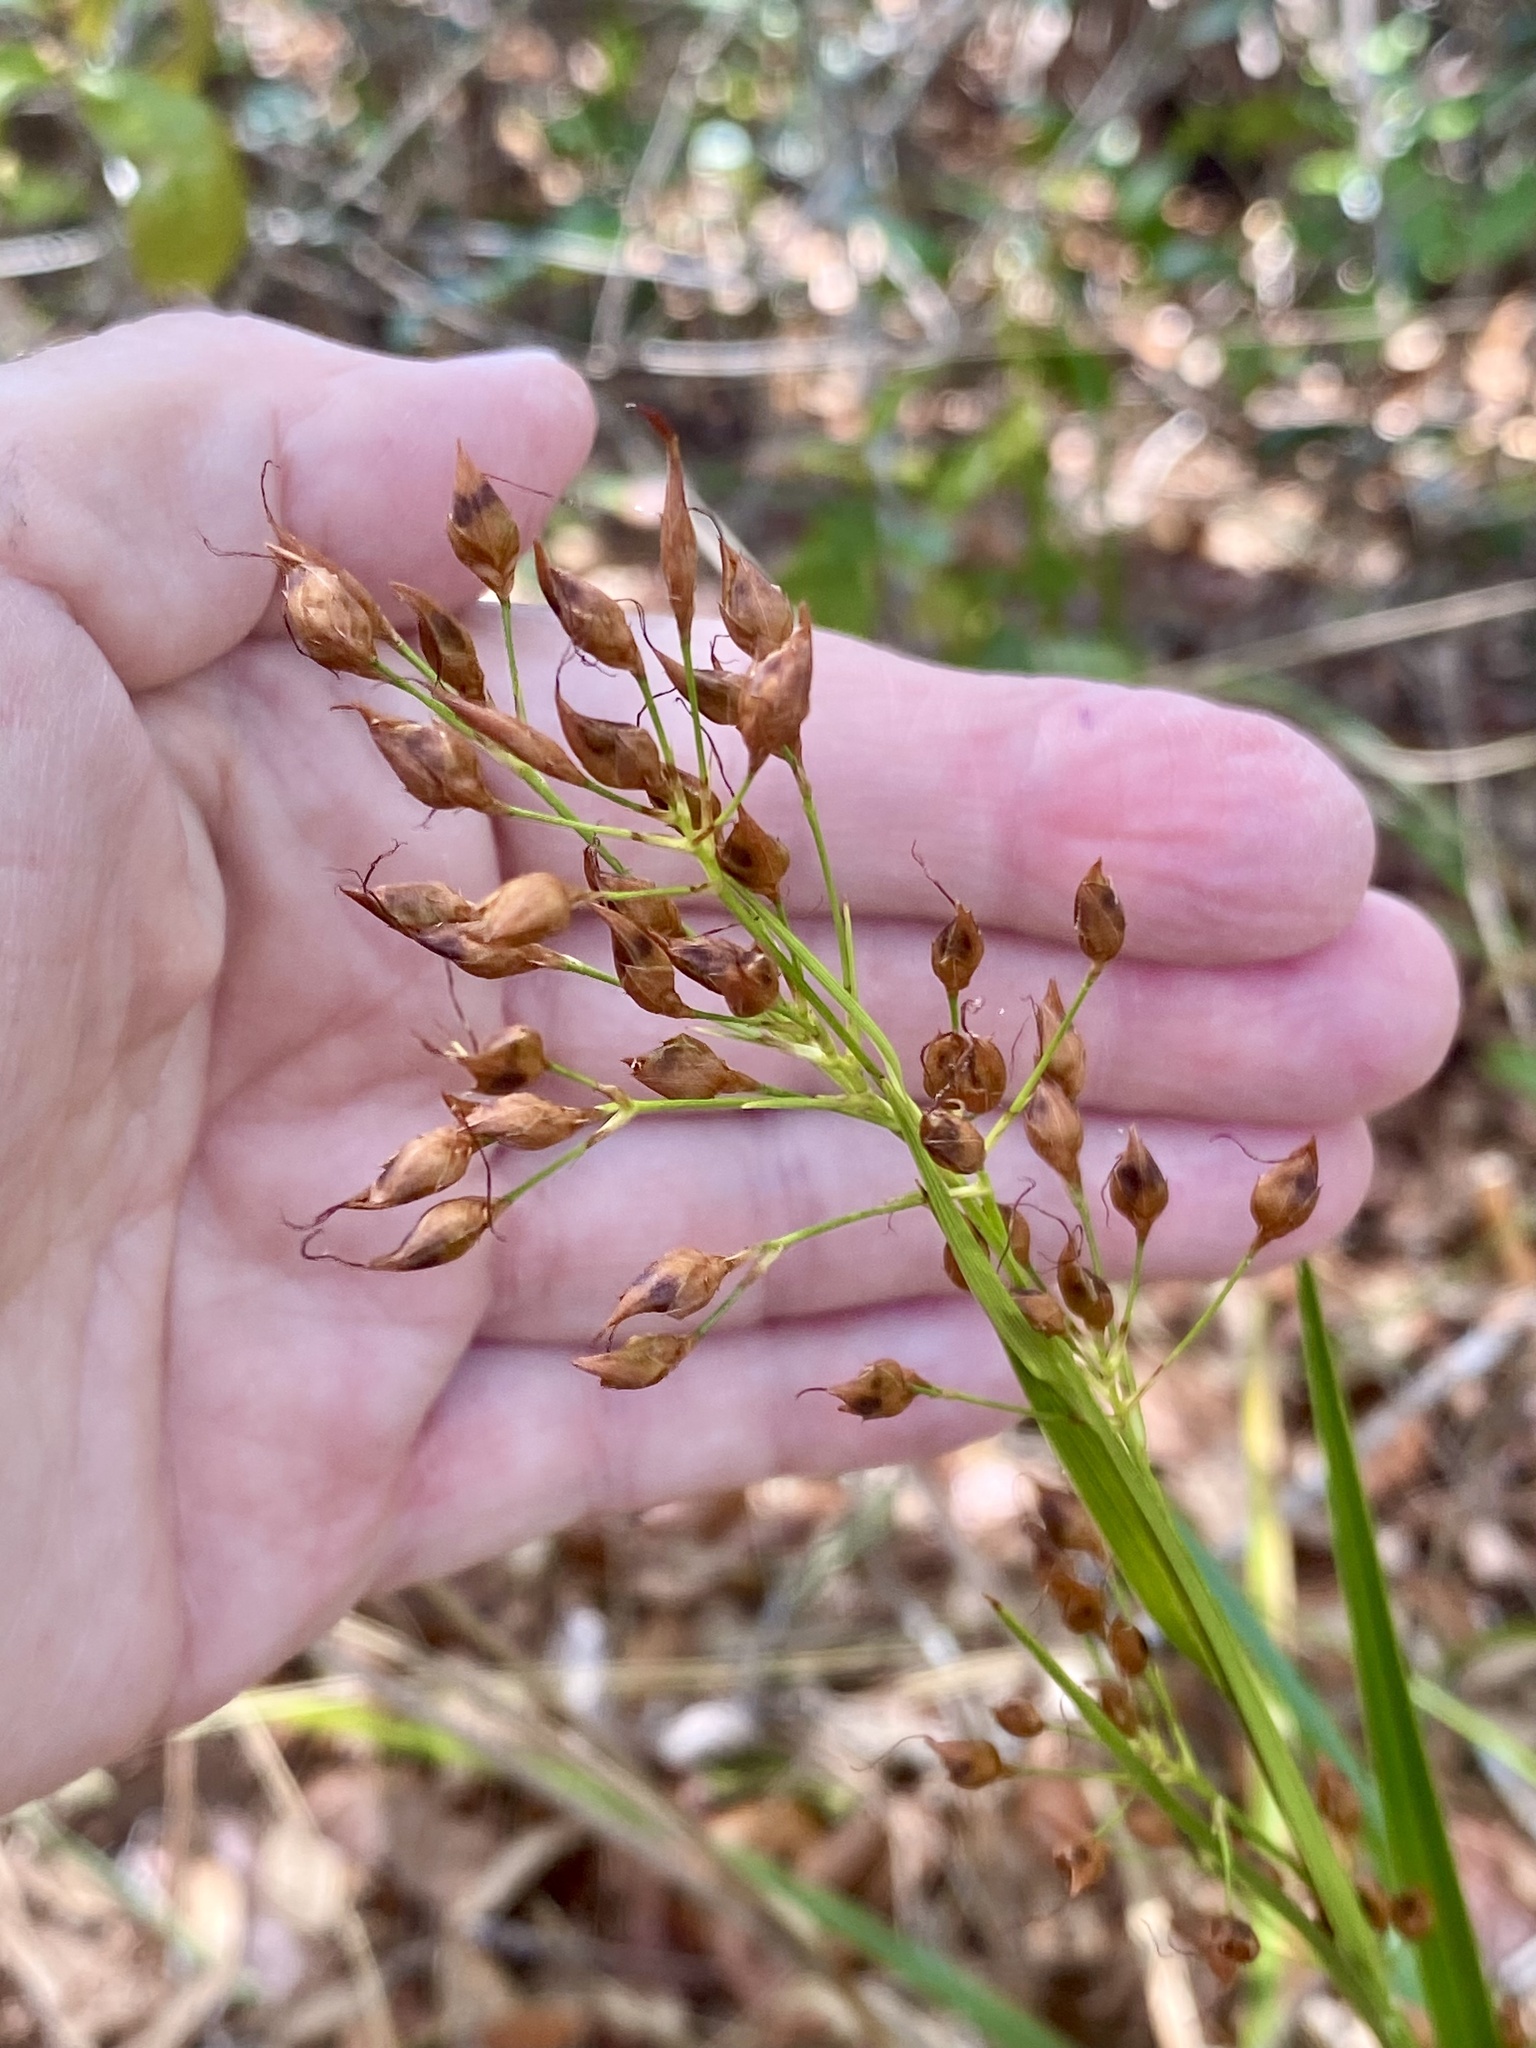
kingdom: Plantae
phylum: Tracheophyta
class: Liliopsida
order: Poales
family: Cyperaceae
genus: Rhynchospora
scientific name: Rhynchospora megalocarpa
